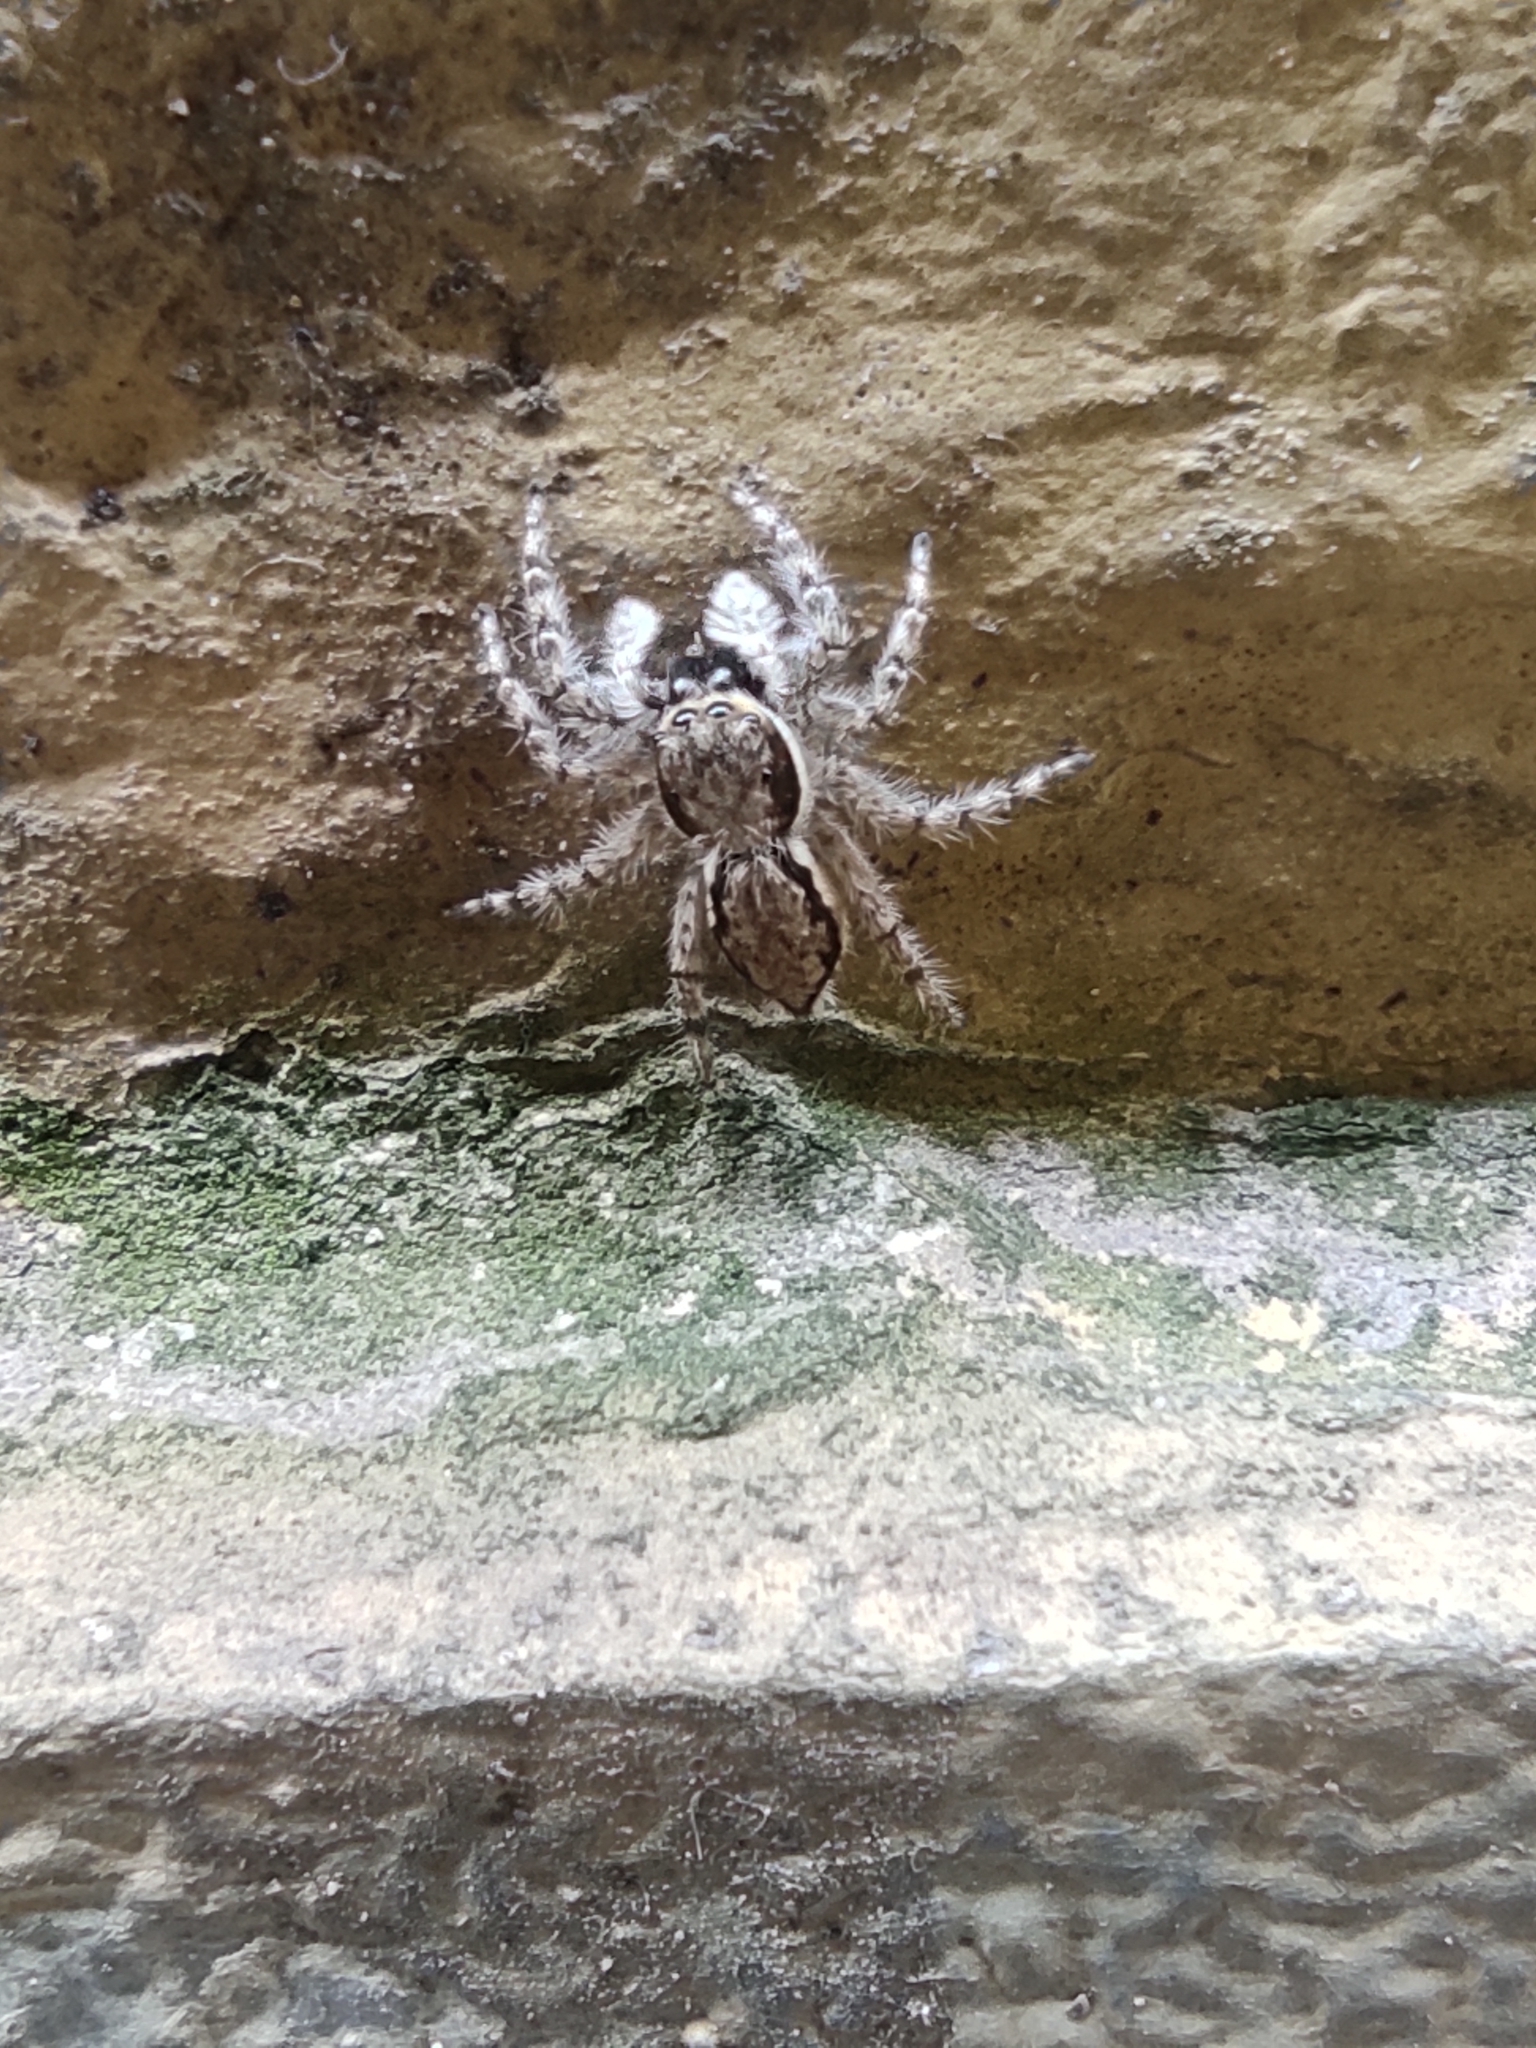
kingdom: Animalia
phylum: Arthropoda
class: Arachnida
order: Araneae
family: Salticidae
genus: Menemerus
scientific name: Menemerus bivittatus
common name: Gray wall jumper
